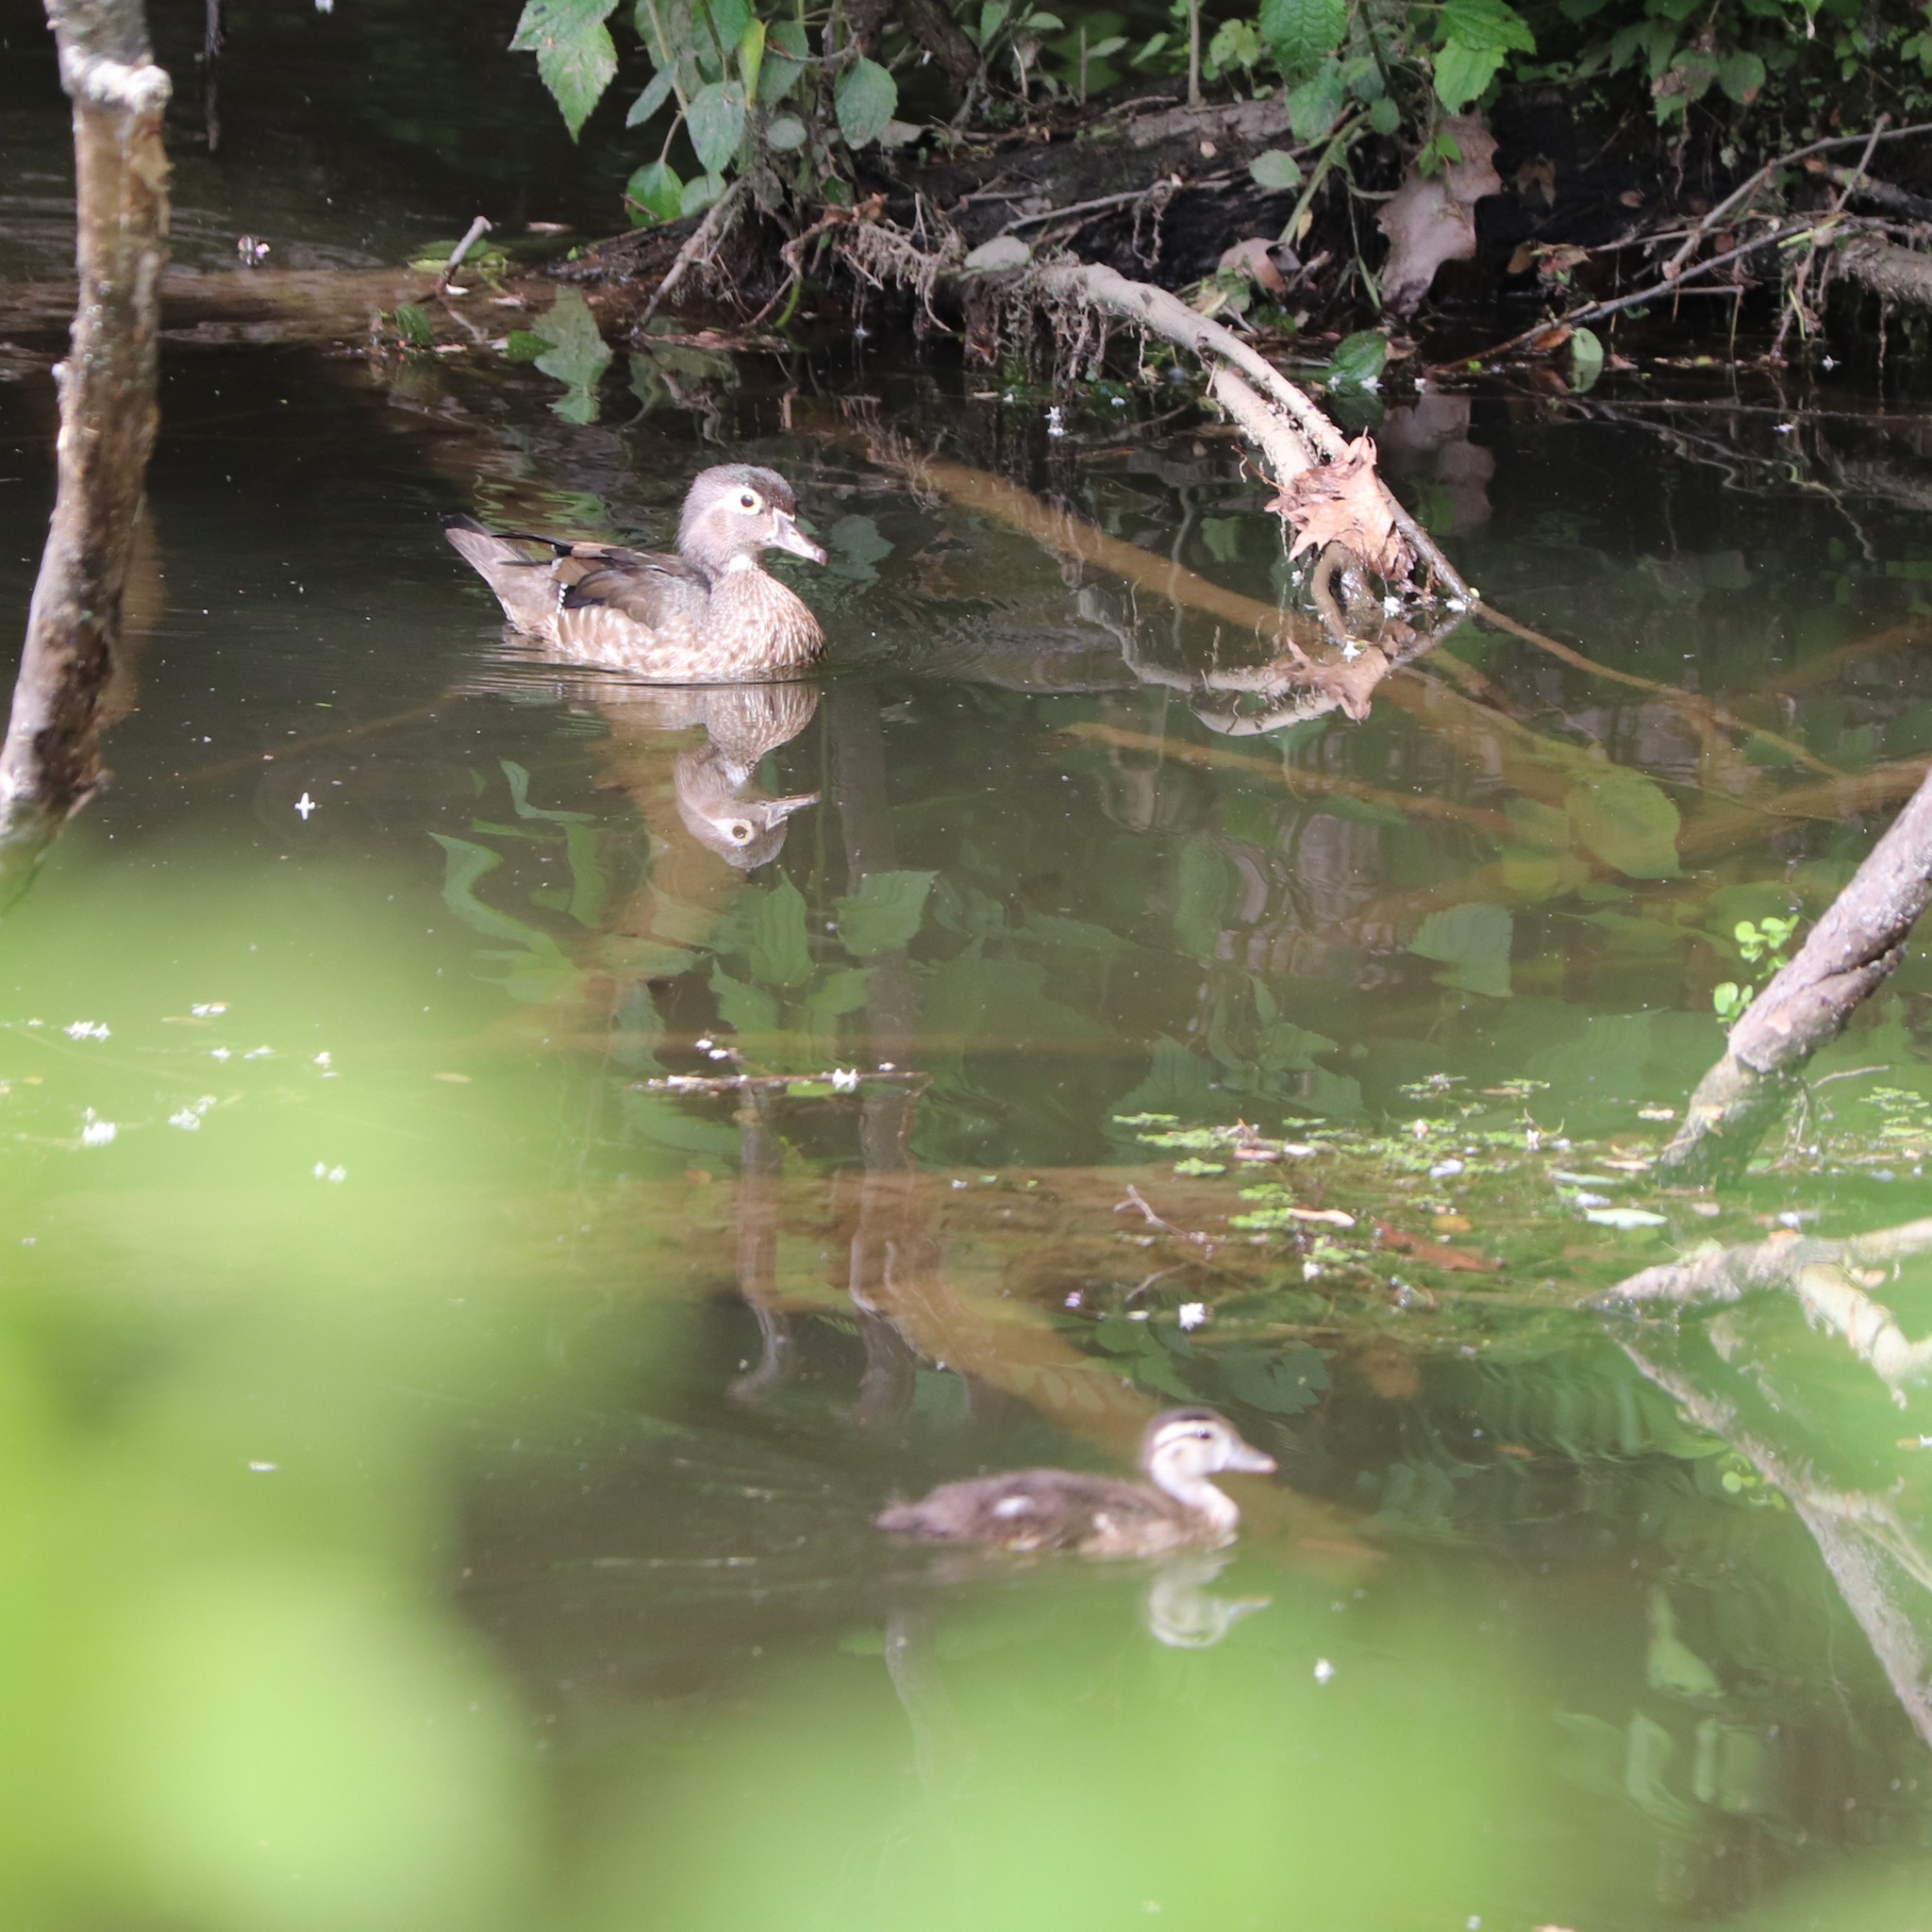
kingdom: Animalia
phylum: Chordata
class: Aves
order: Anseriformes
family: Anatidae
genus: Aix
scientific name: Aix sponsa
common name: Wood duck
